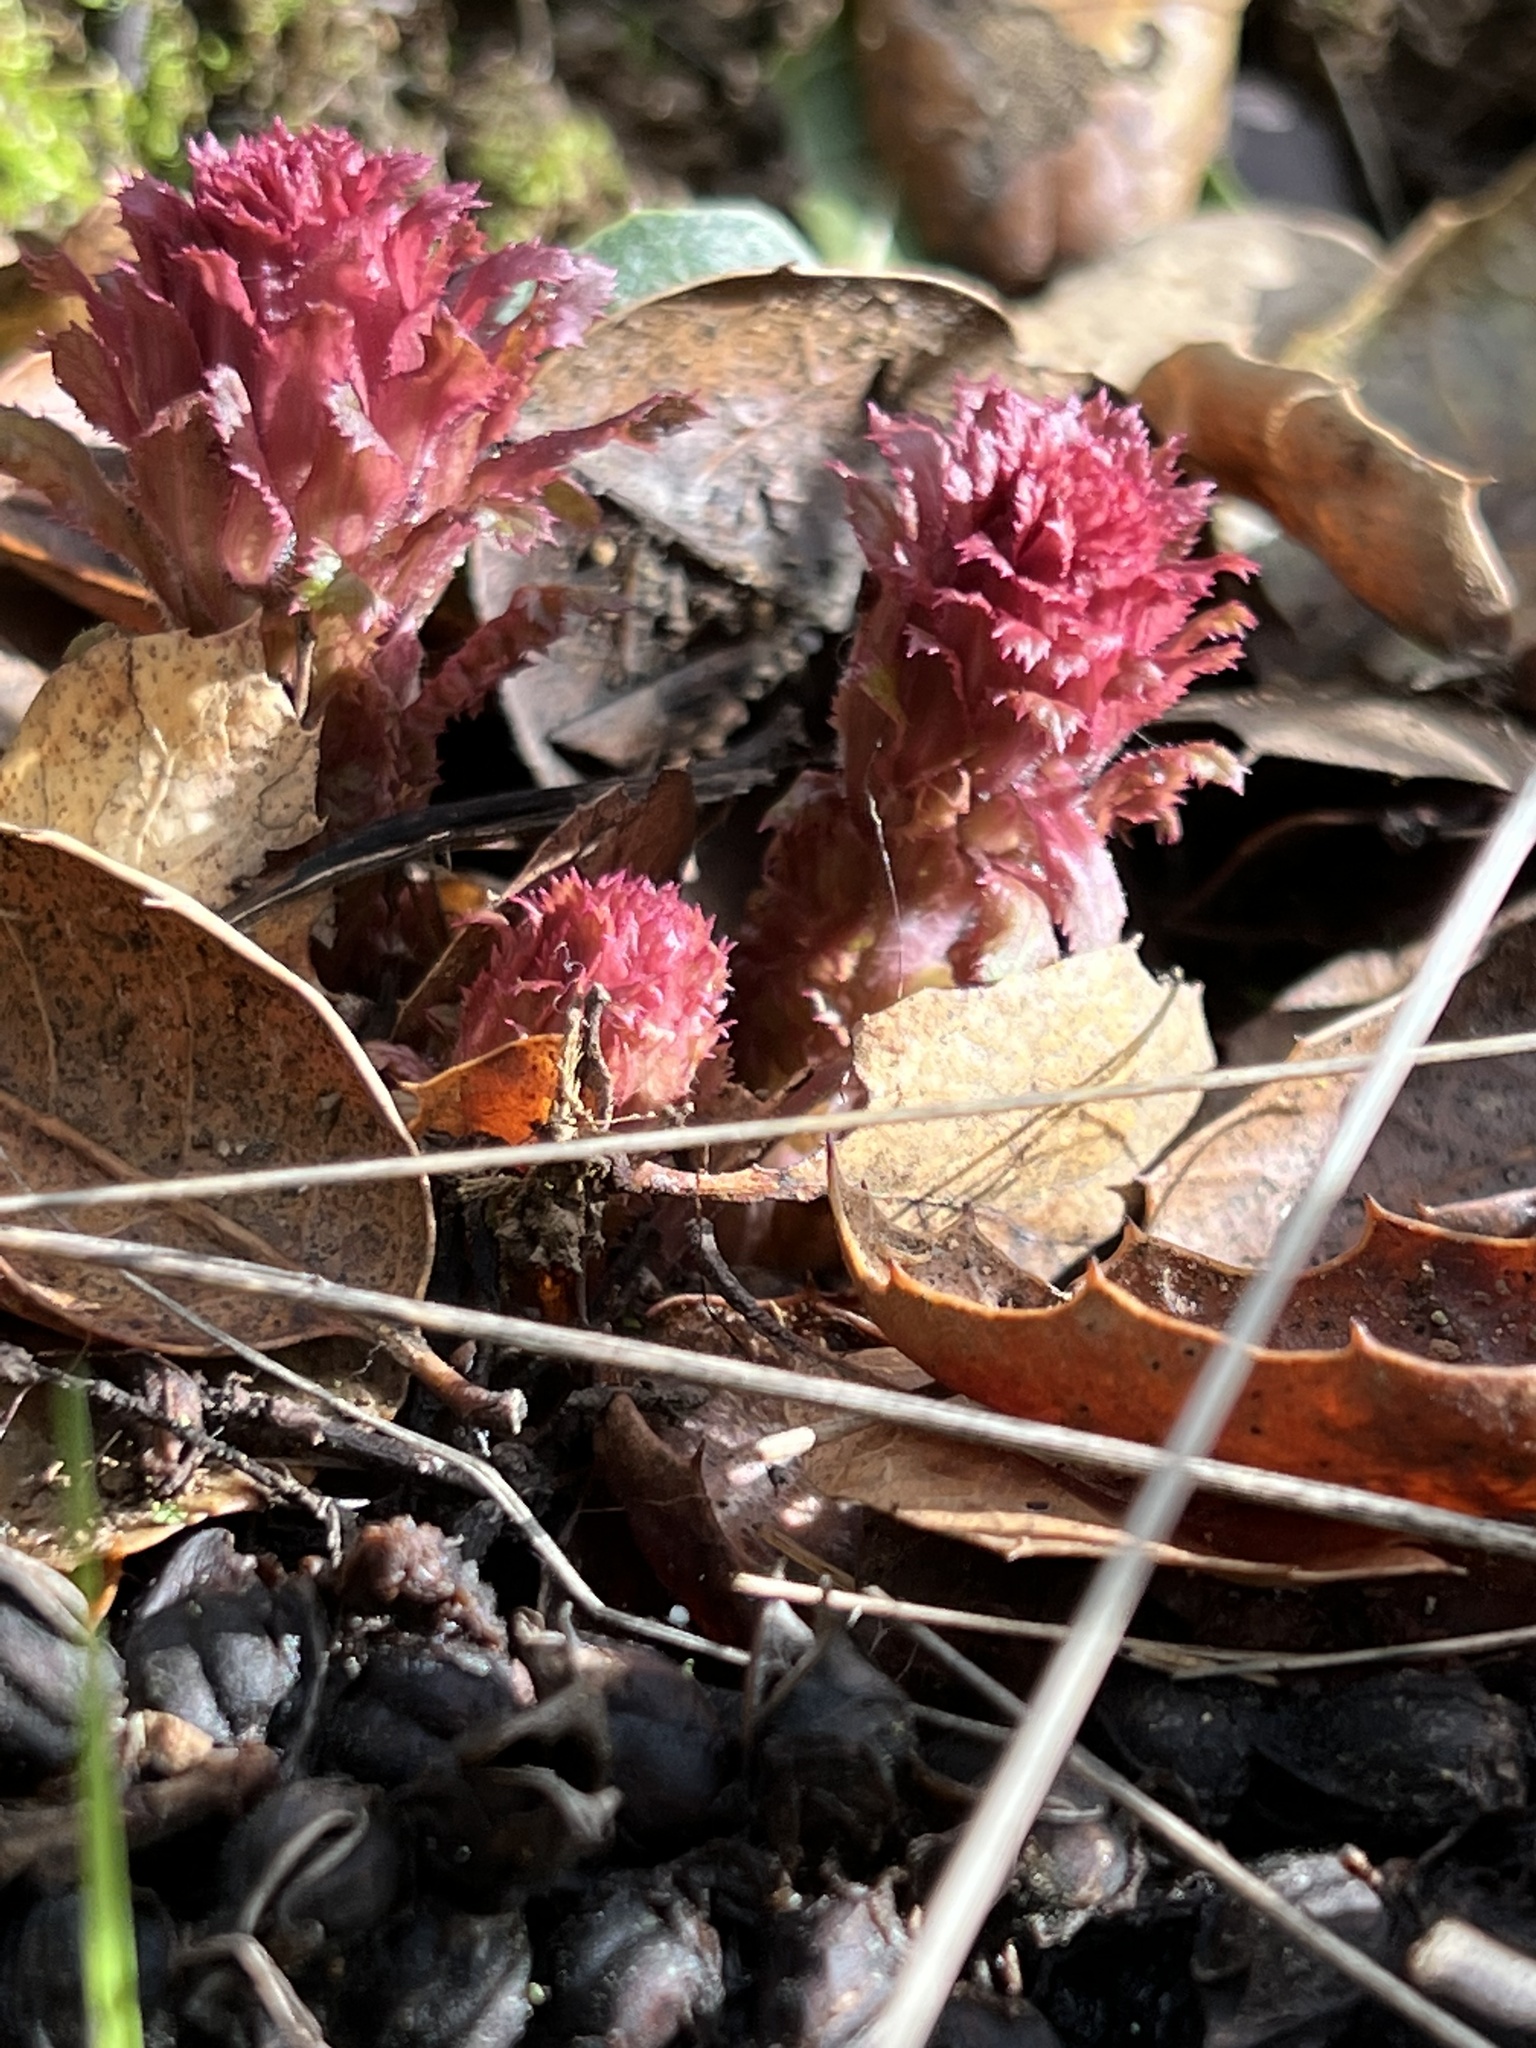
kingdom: Plantae
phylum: Tracheophyta
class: Magnoliopsida
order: Lamiales
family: Orobanchaceae
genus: Pedicularis
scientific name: Pedicularis densiflora
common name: Indian warrior
